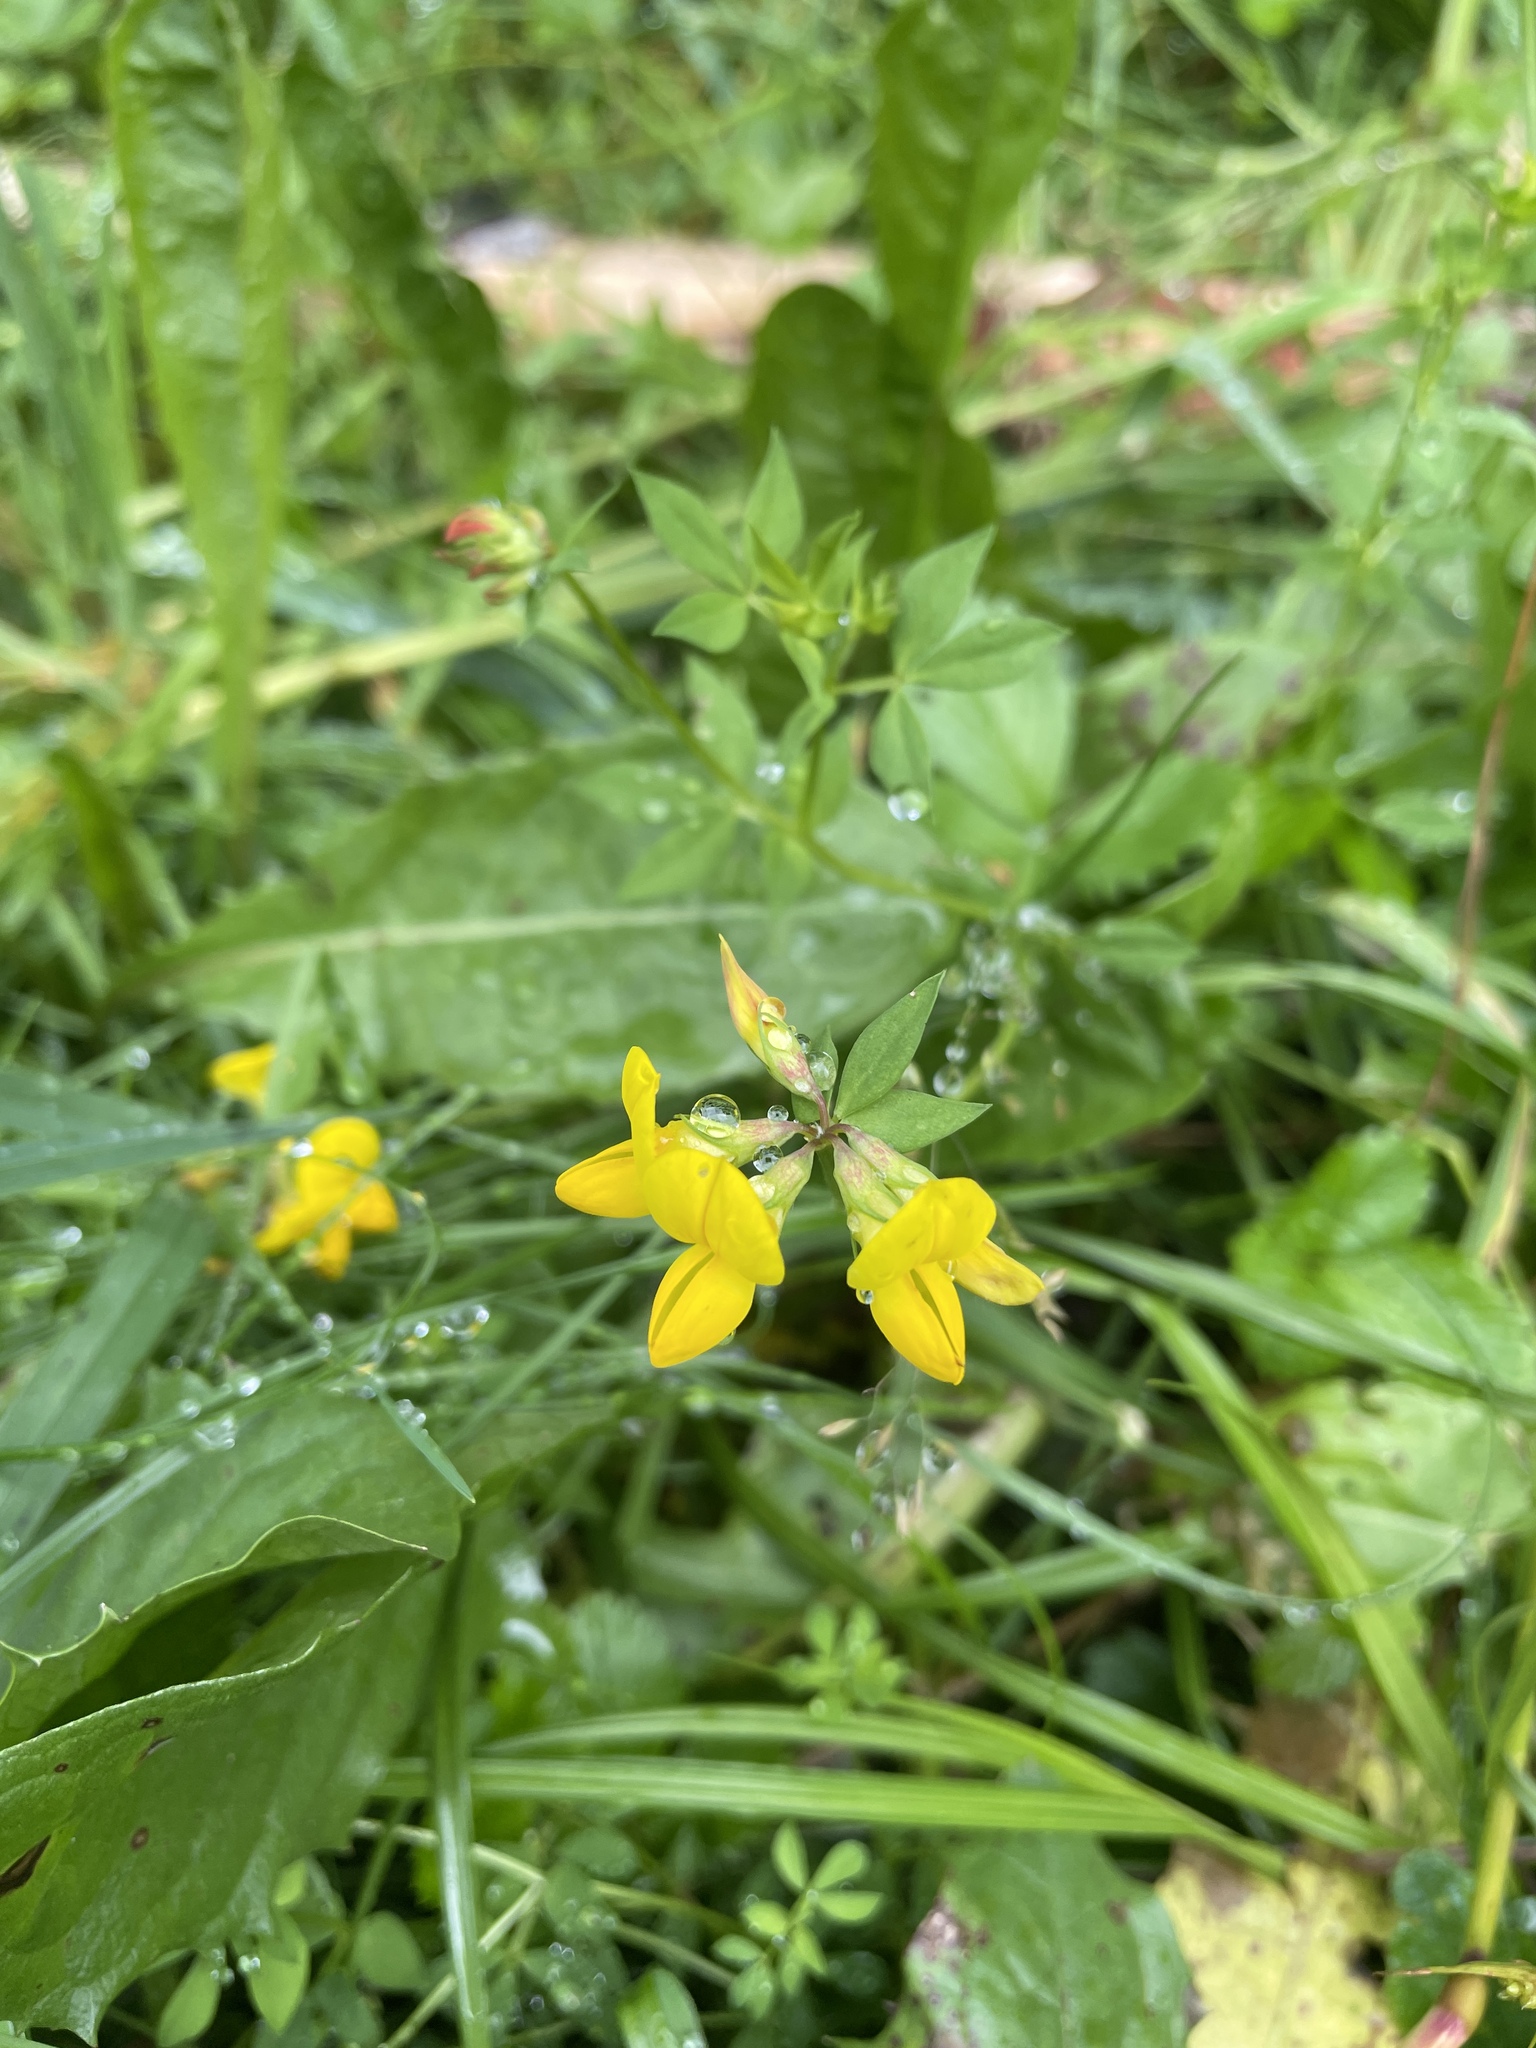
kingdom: Plantae
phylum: Tracheophyta
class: Magnoliopsida
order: Fabales
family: Fabaceae
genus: Lotus
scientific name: Lotus corniculatus
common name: Common bird's-foot-trefoil
